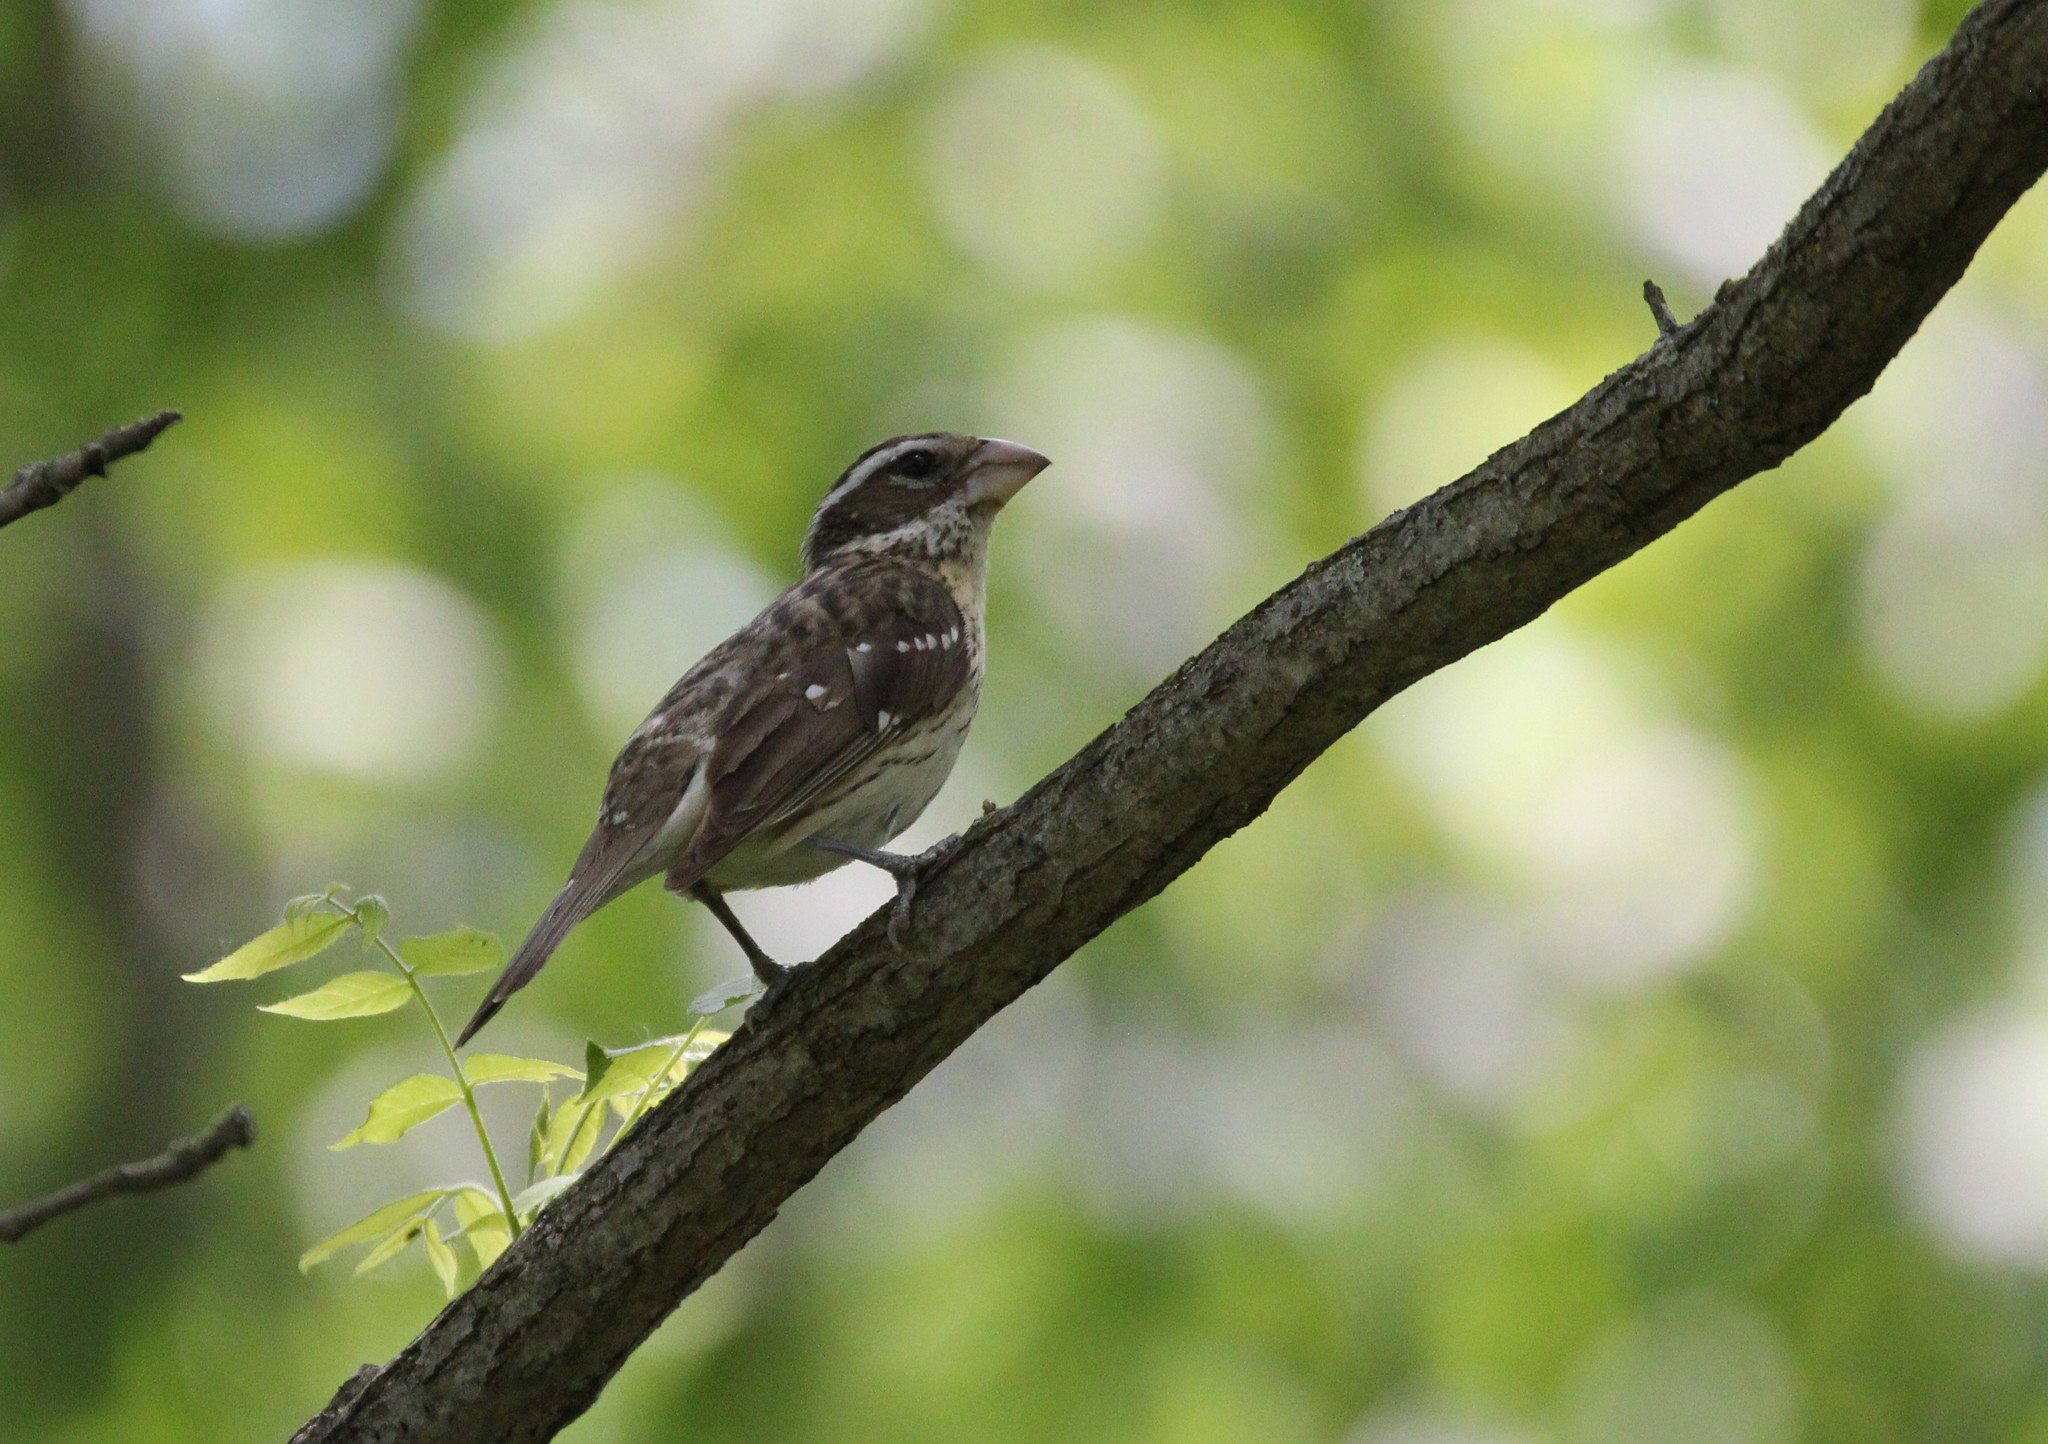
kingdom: Animalia
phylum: Chordata
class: Aves
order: Passeriformes
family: Cardinalidae
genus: Pheucticus
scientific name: Pheucticus ludovicianus
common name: Rose-breasted grosbeak
